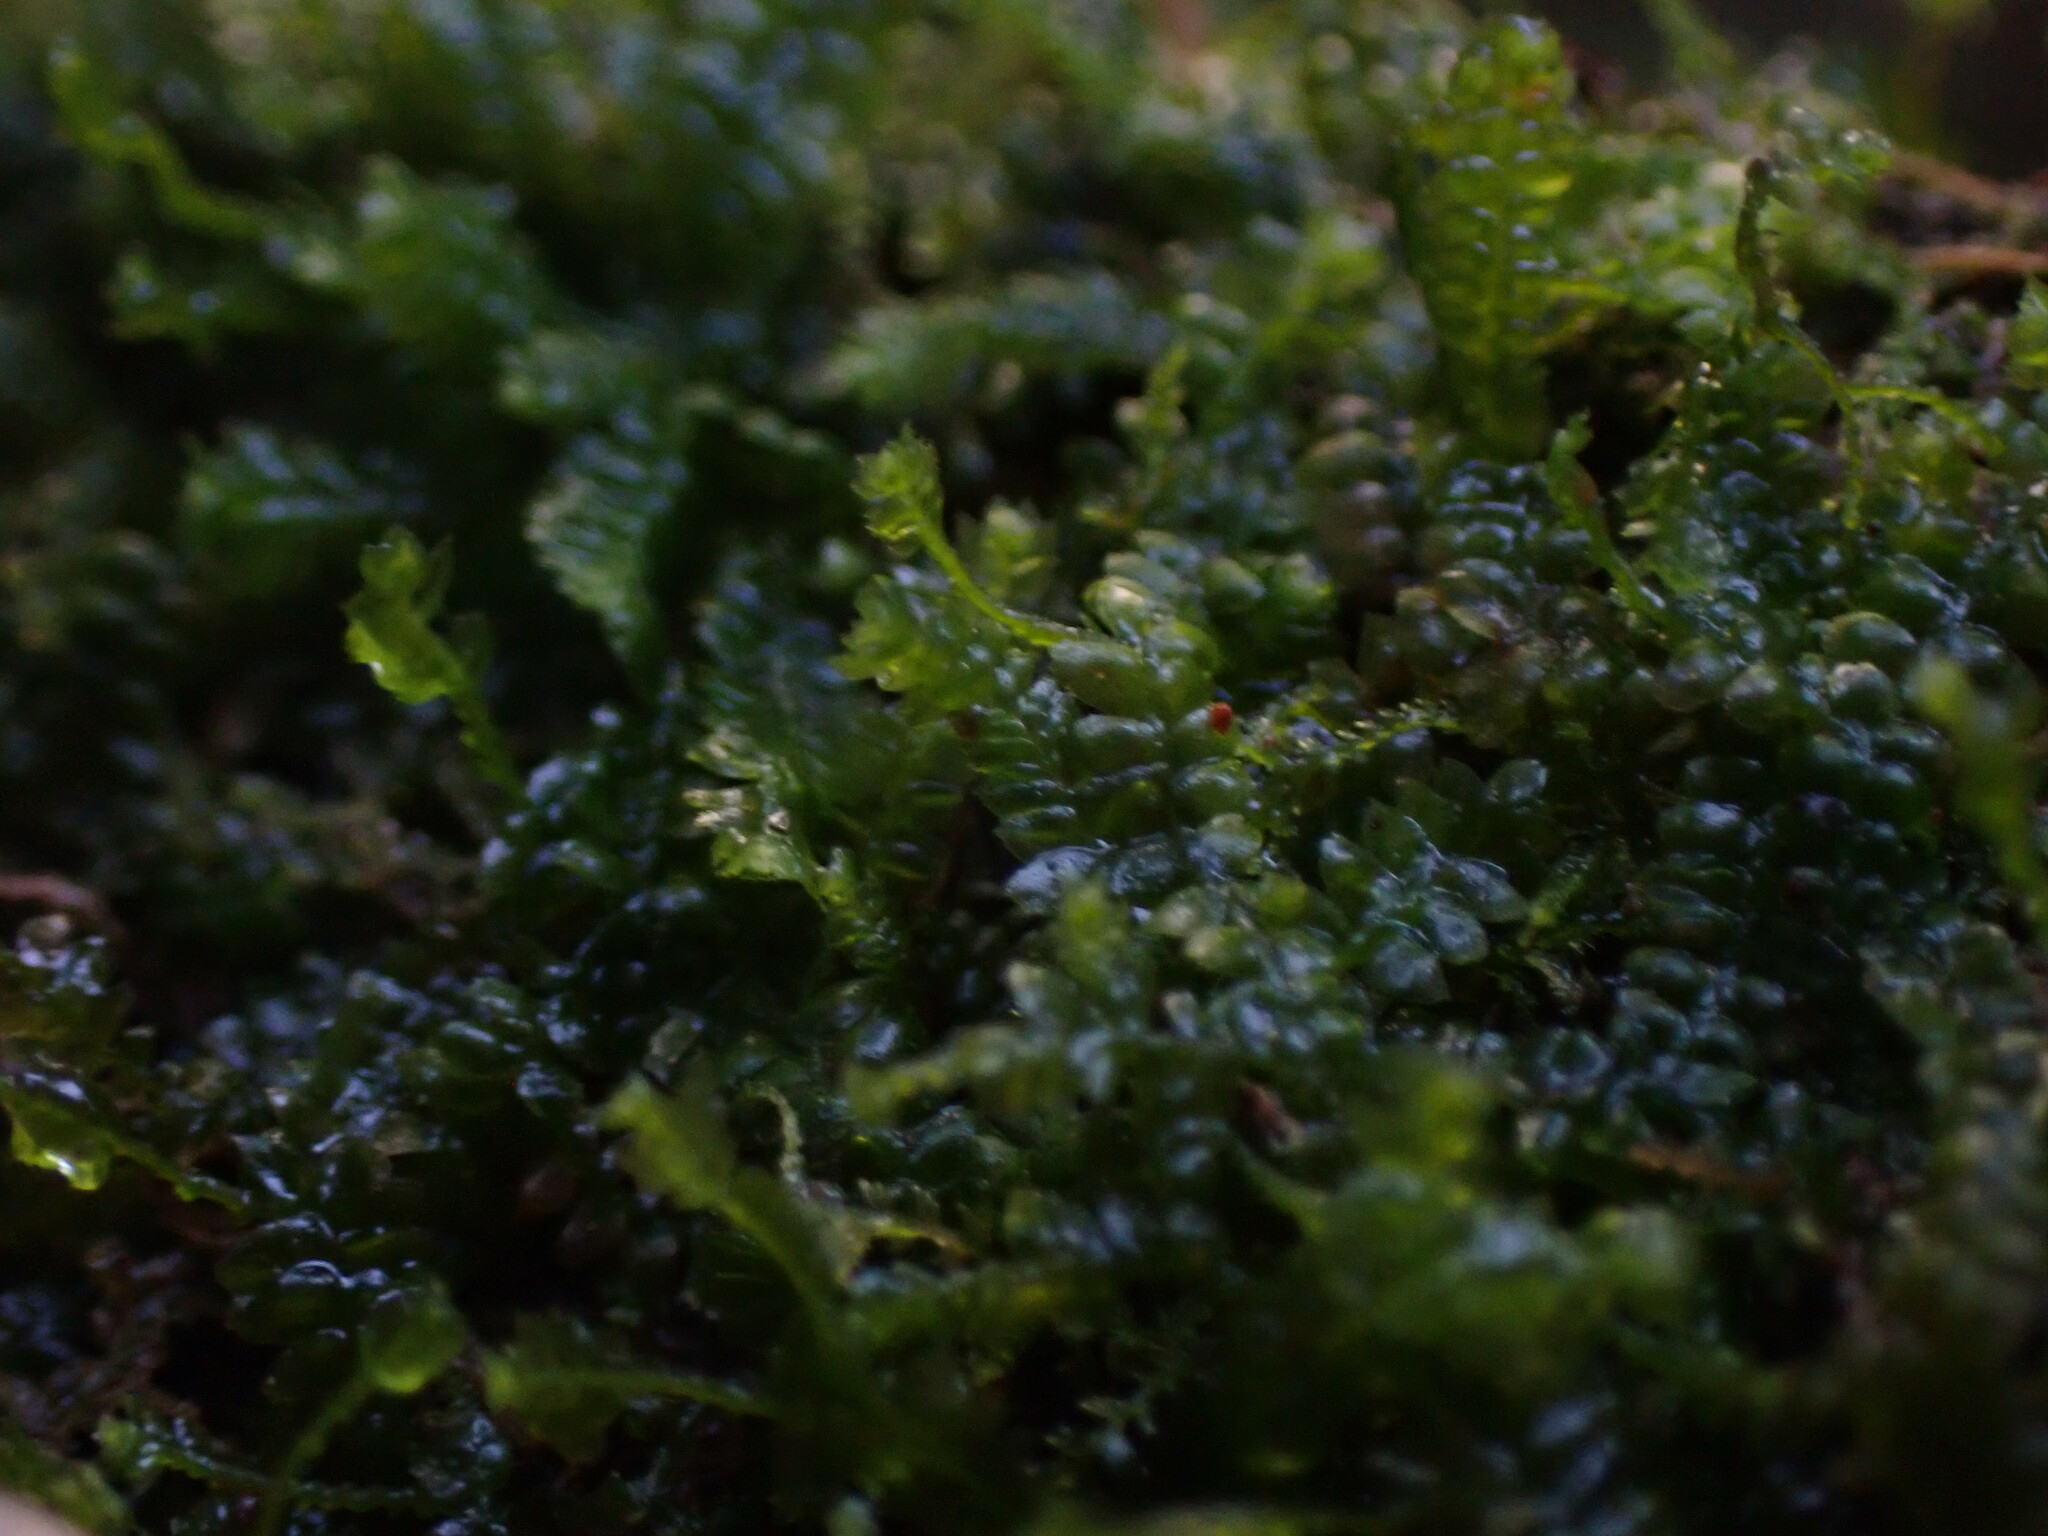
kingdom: Plantae
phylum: Marchantiophyta
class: Jungermanniopsida
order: Jungermanniales
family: Lepidoziaceae
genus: Bazzania
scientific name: Bazzania denudata
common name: Naked whipwort
